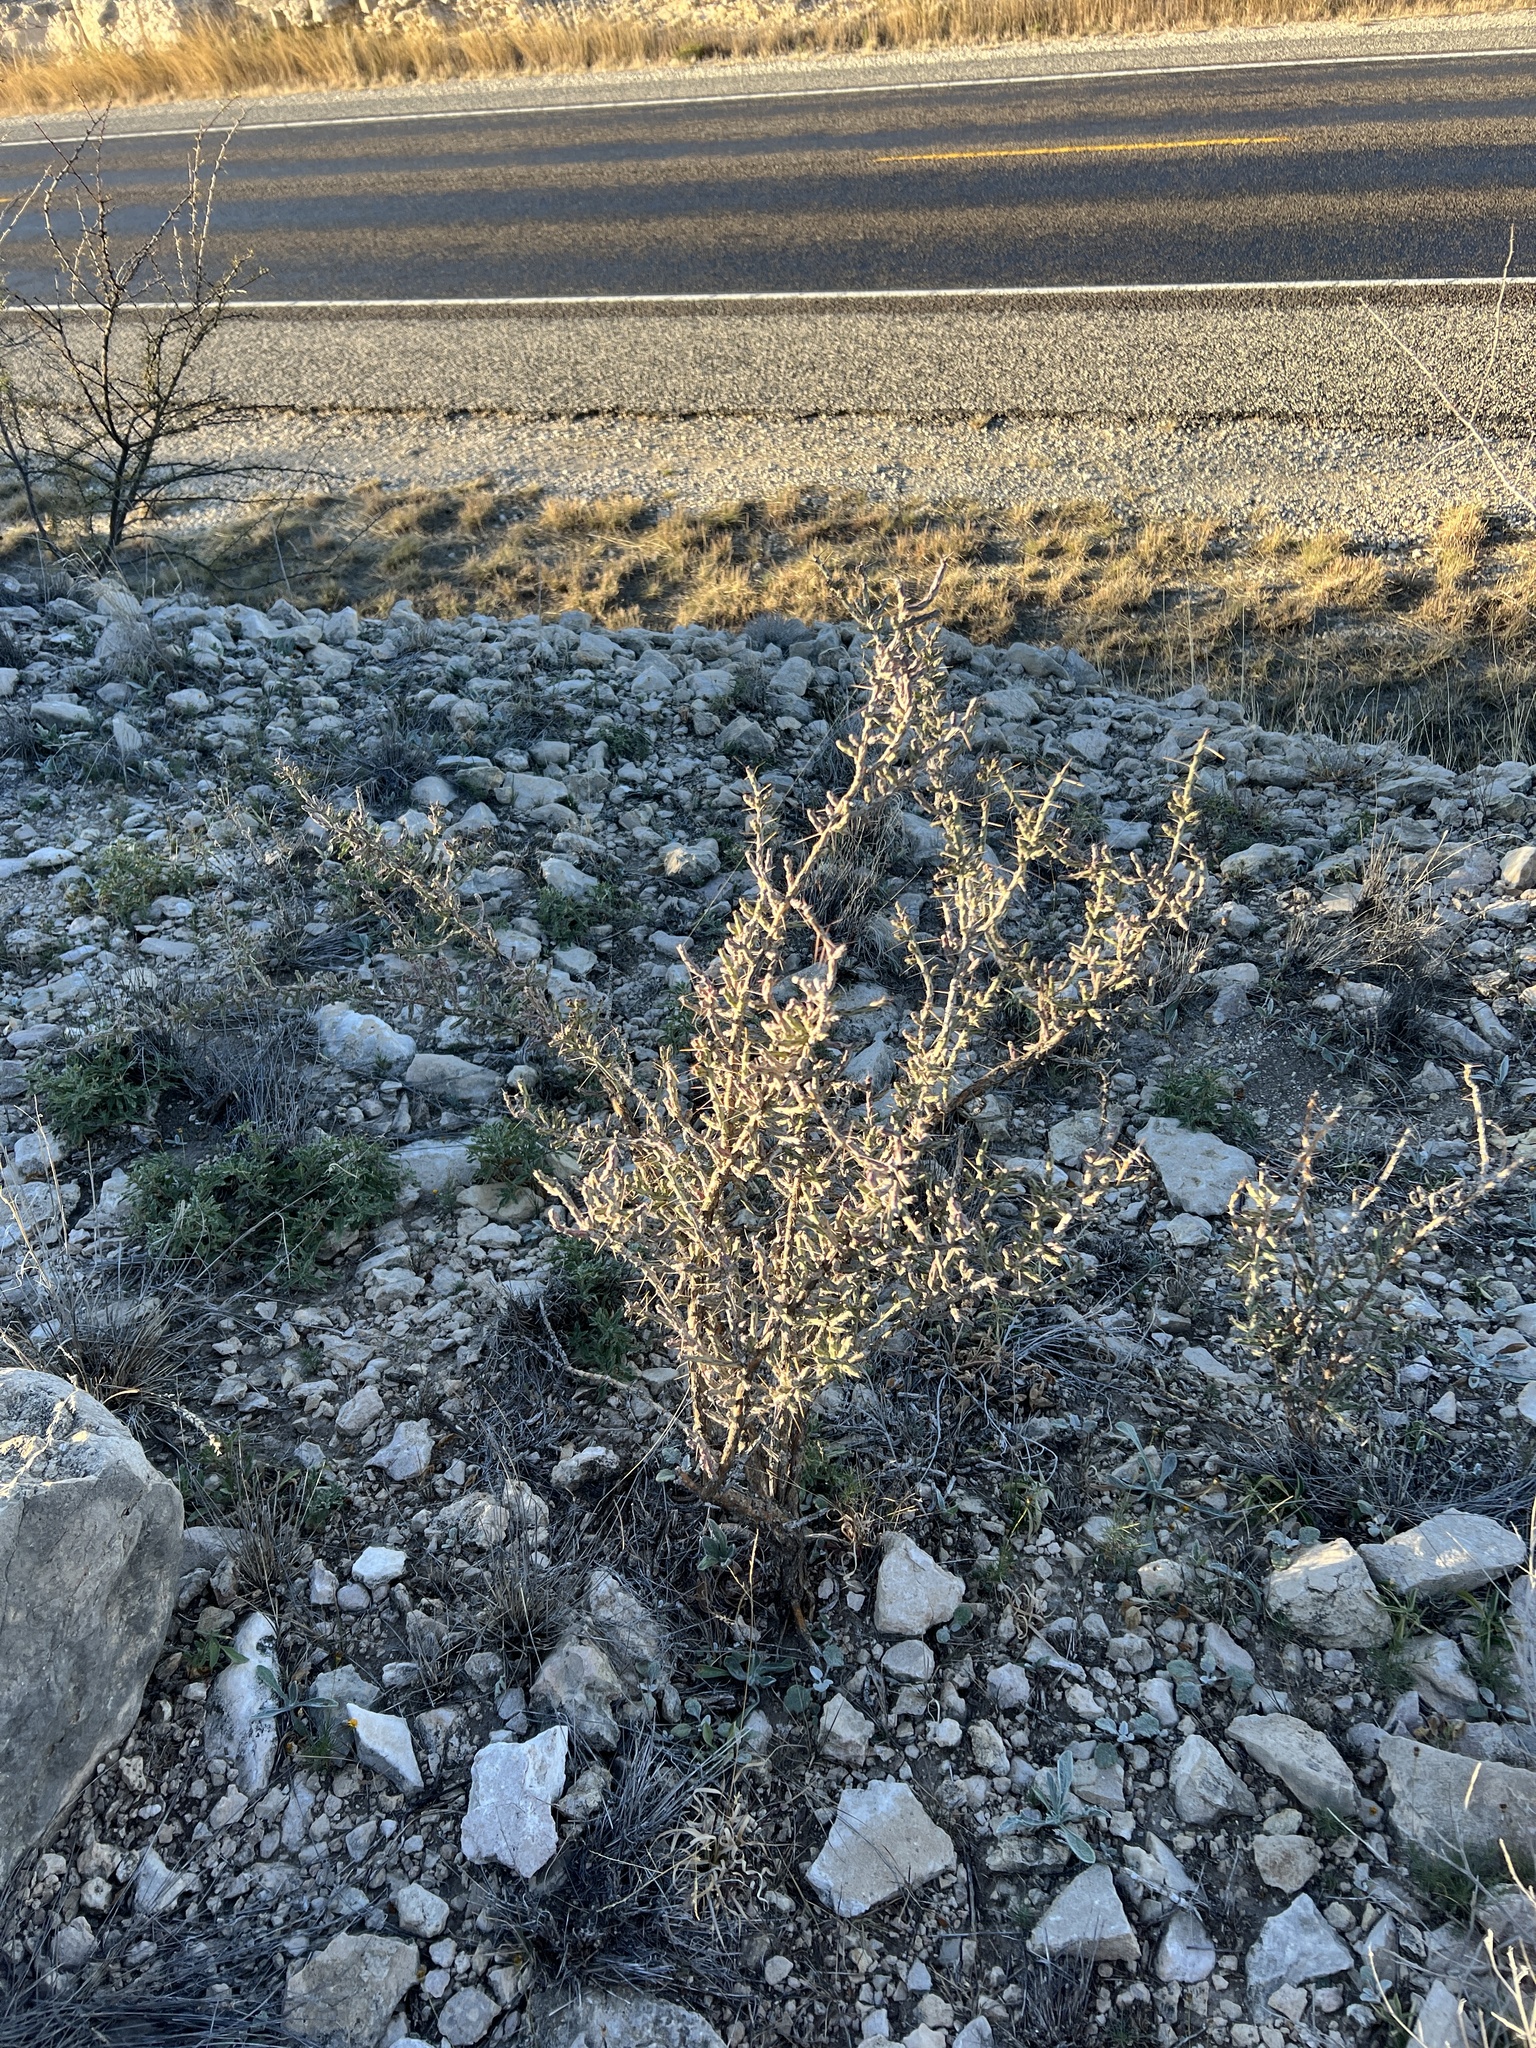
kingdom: Plantae
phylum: Tracheophyta
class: Magnoliopsida
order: Caryophyllales
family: Cactaceae
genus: Cylindropuntia
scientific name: Cylindropuntia leptocaulis
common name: Christmas cactus
